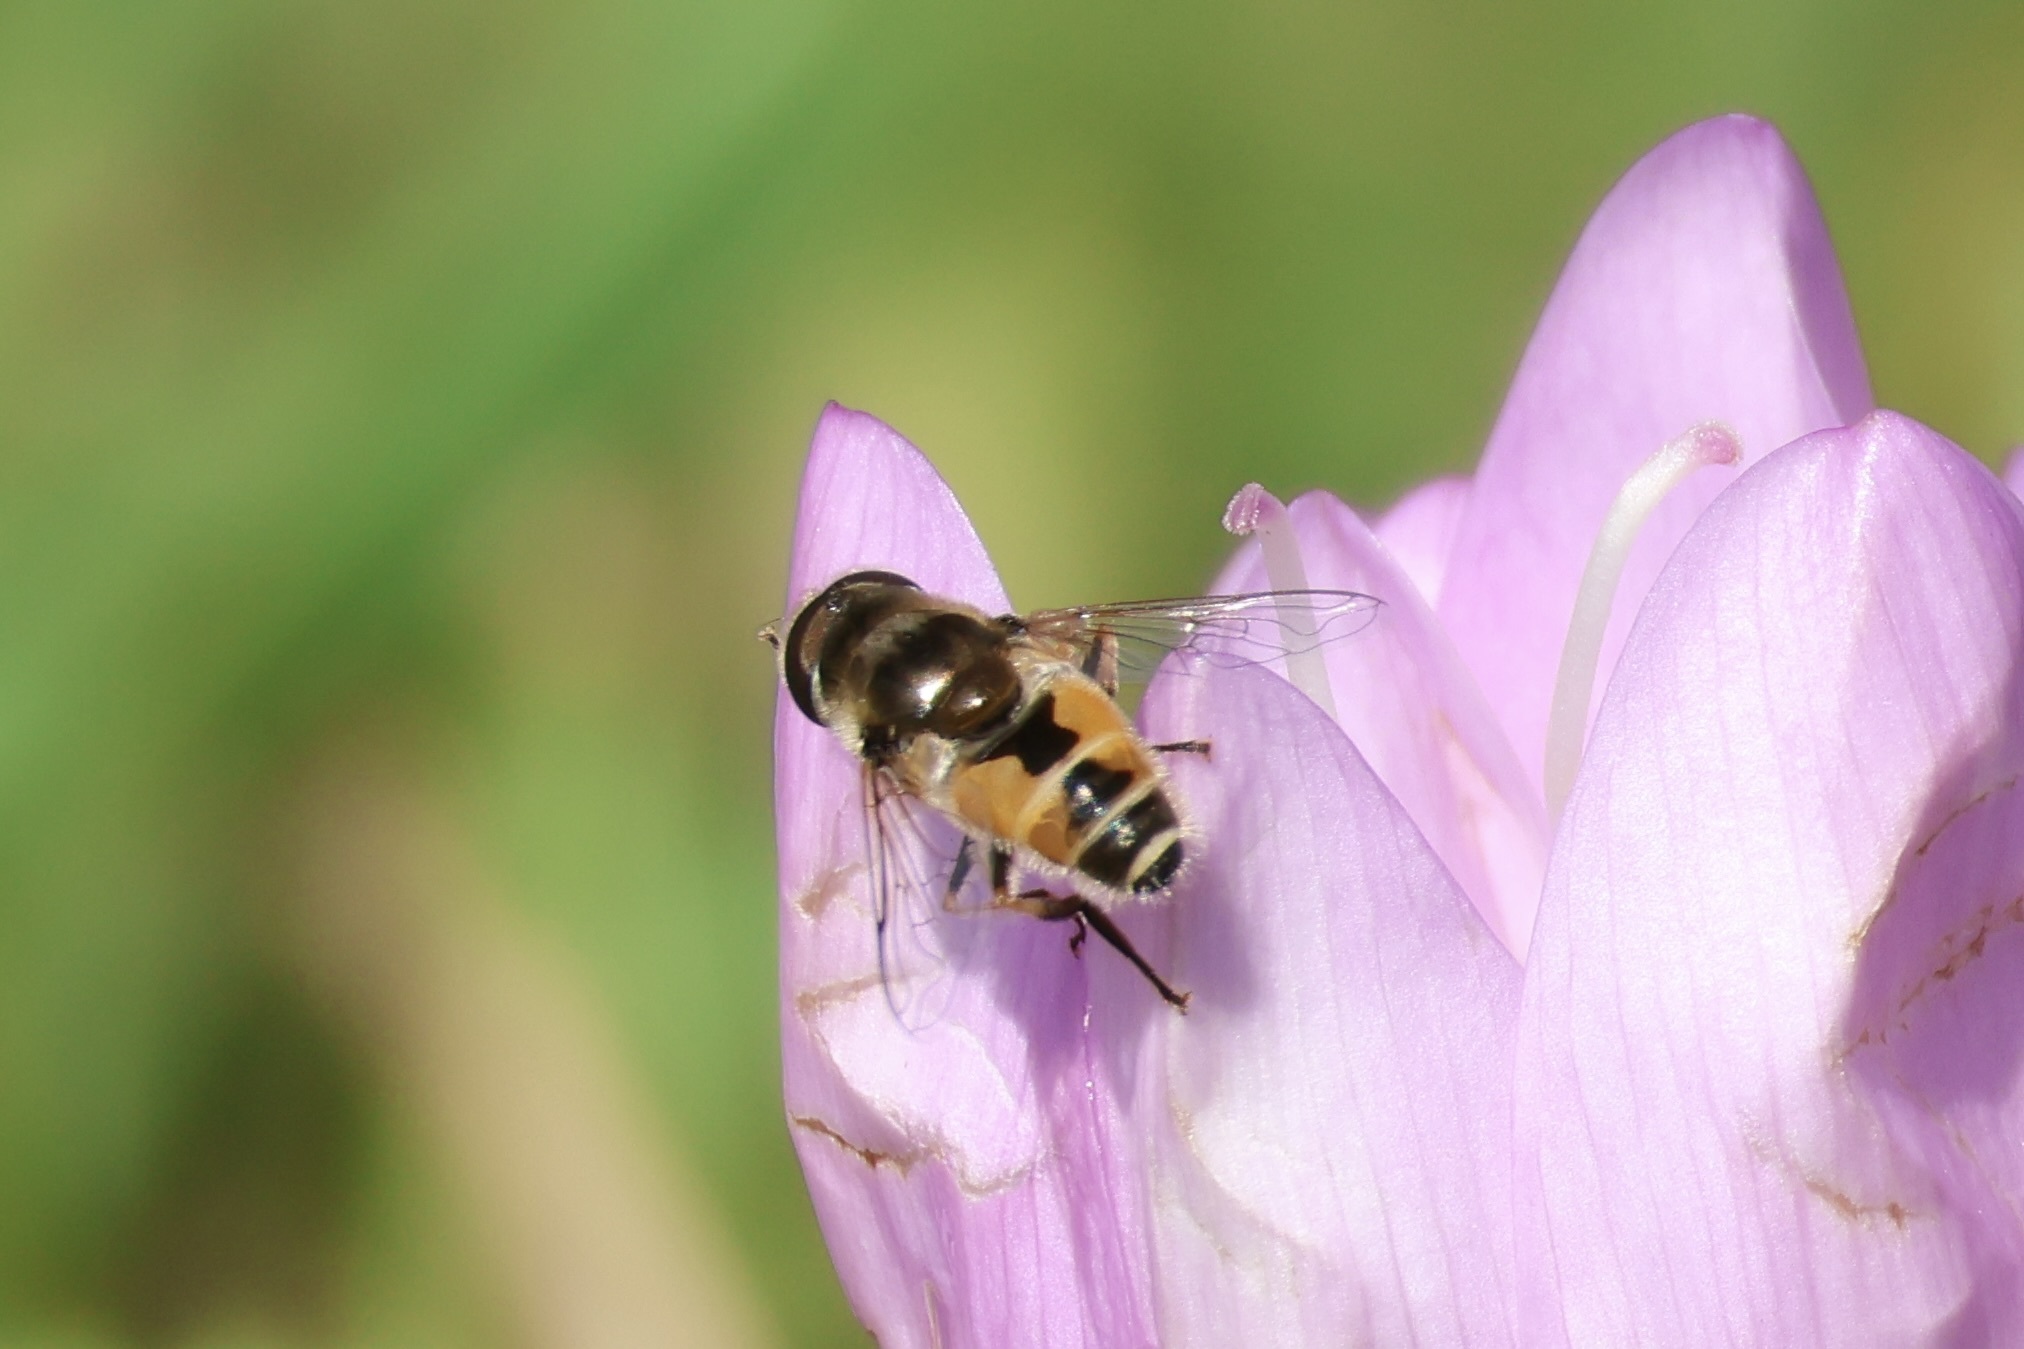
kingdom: Animalia
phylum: Arthropoda
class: Insecta
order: Diptera
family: Syrphidae
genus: Eristalis
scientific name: Eristalis arbustorum
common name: Hover fly
